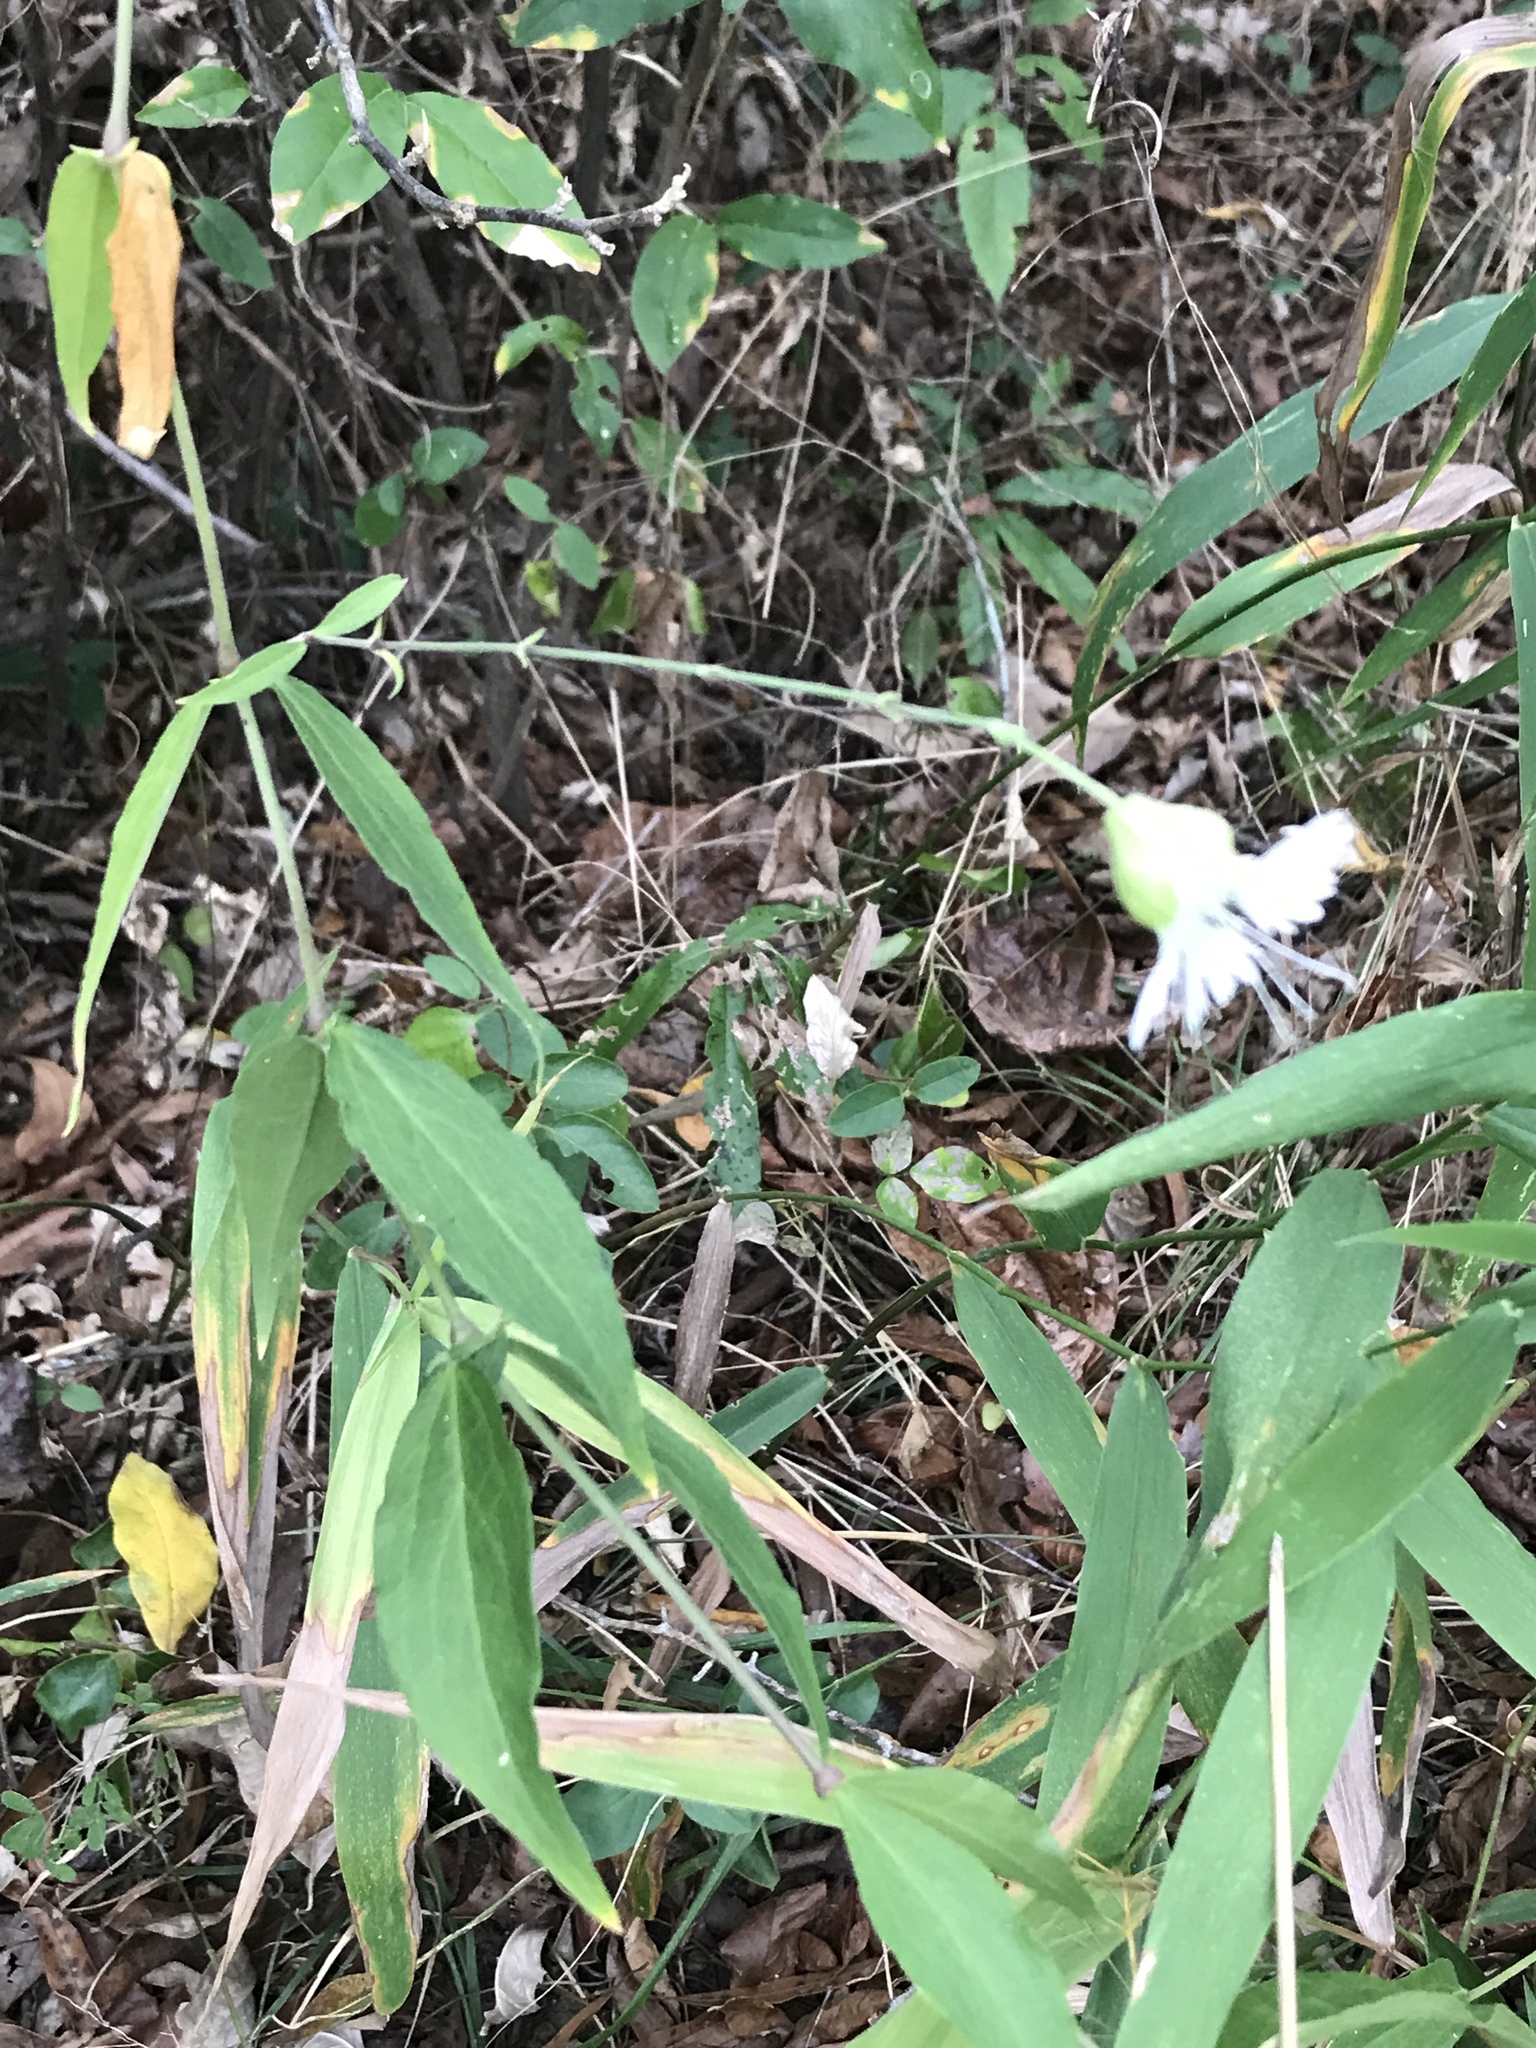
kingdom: Plantae
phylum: Tracheophyta
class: Magnoliopsida
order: Caryophyllales
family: Caryophyllaceae
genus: Silene
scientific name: Silene stellata
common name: Starry campion
